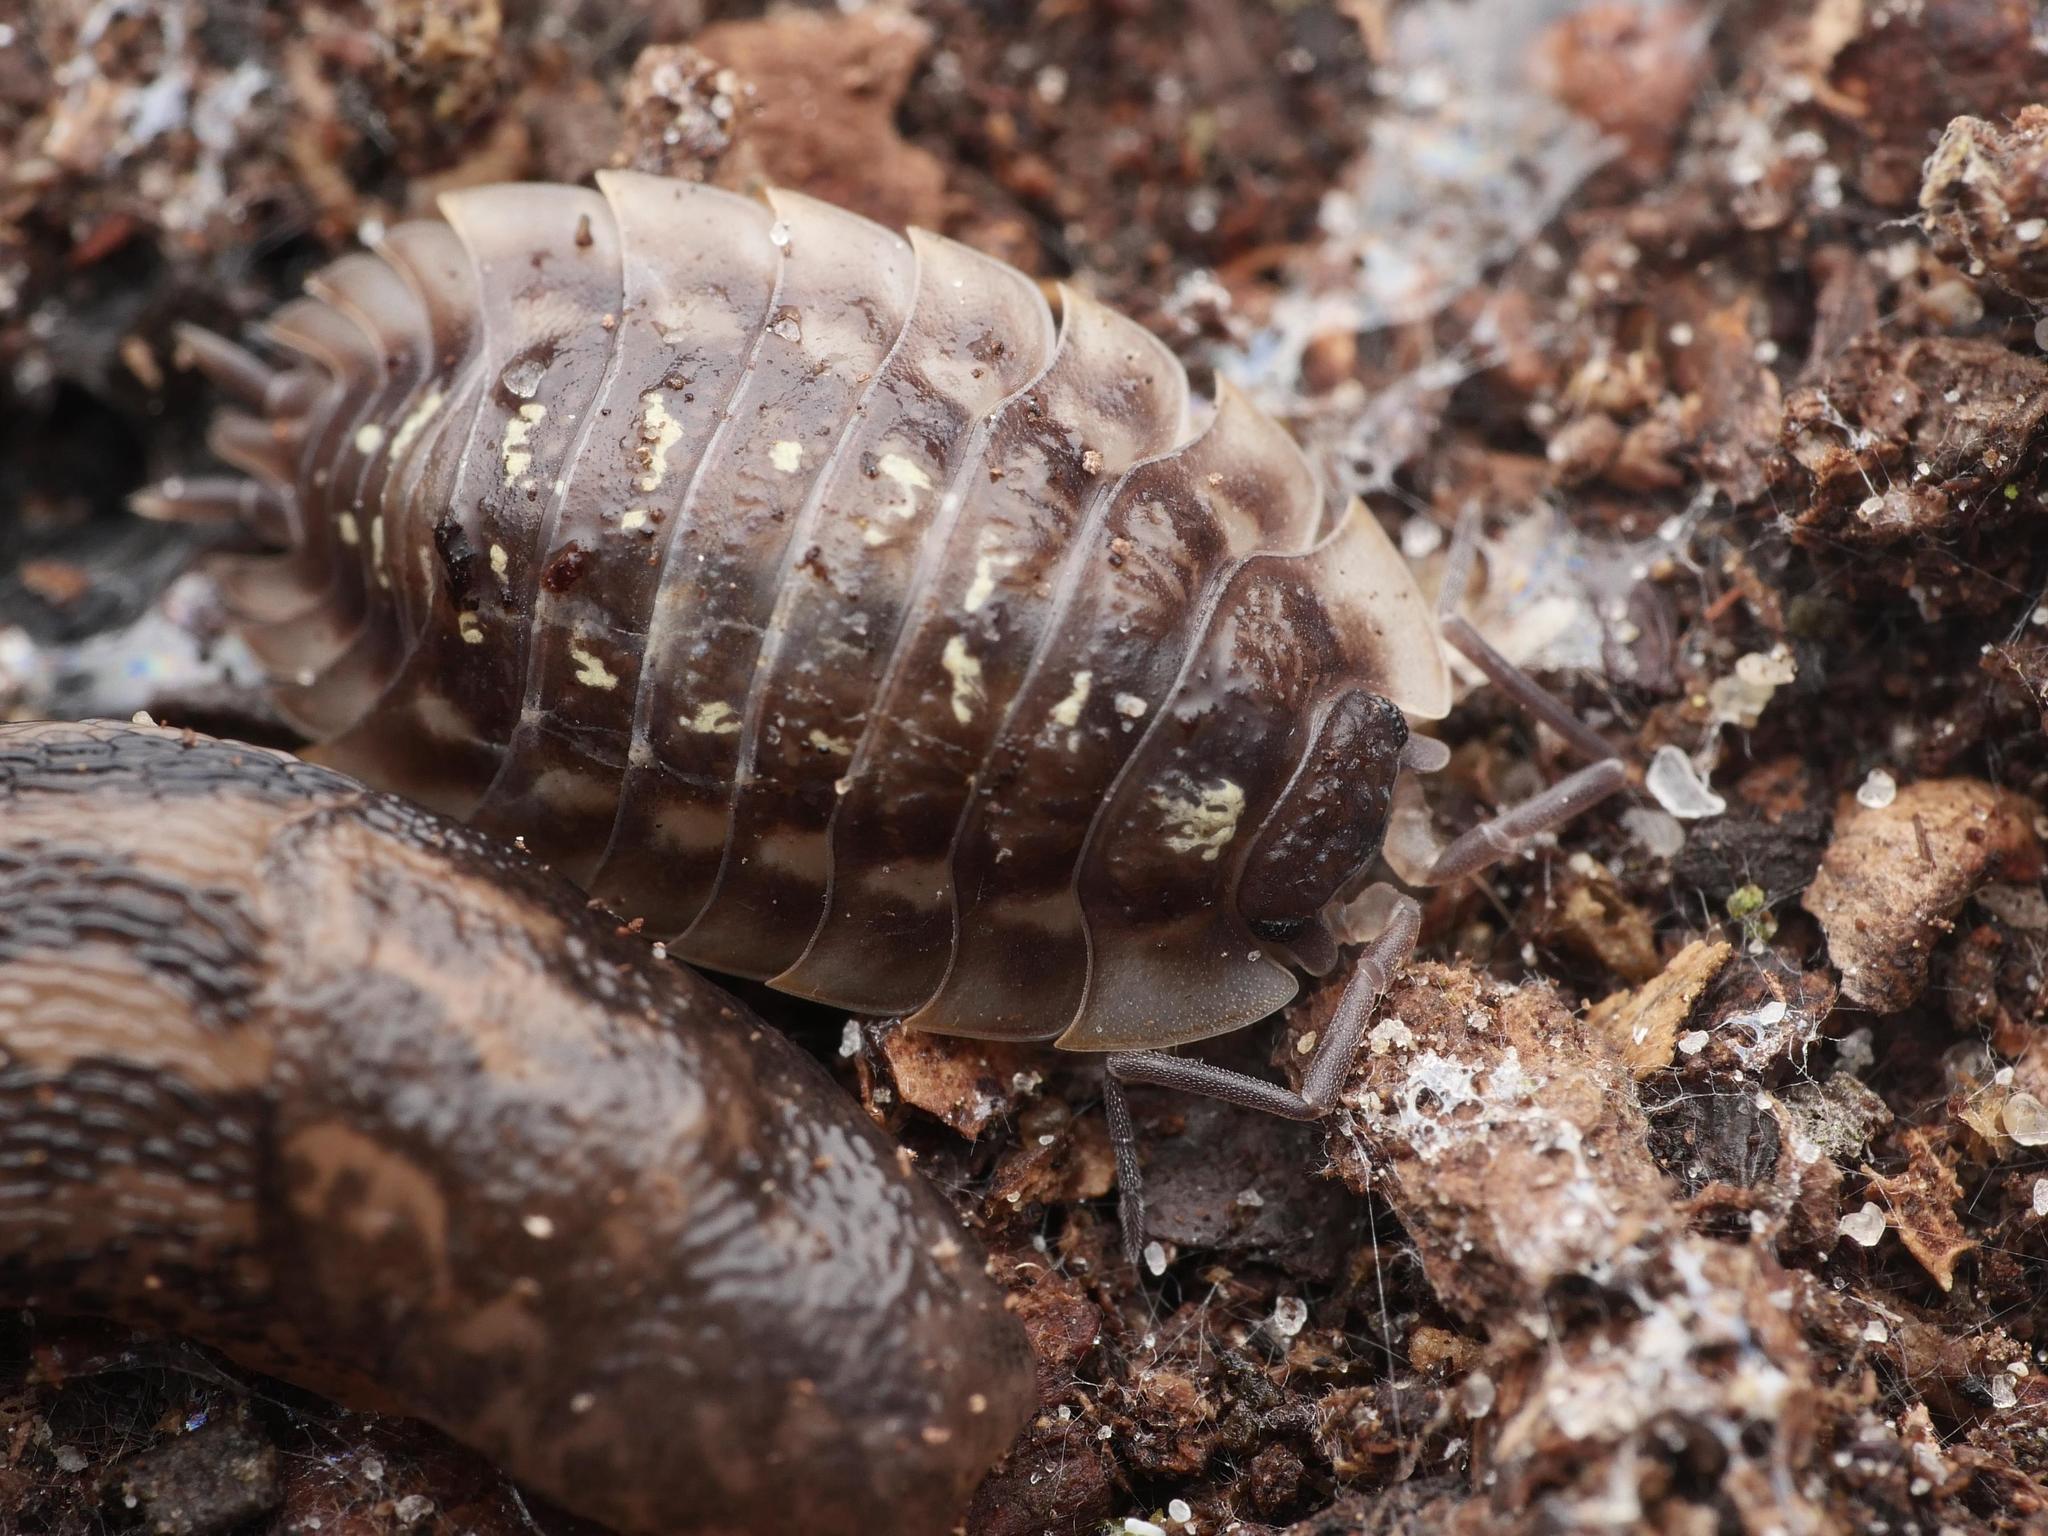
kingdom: Animalia
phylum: Arthropoda
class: Malacostraca
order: Isopoda
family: Oniscidae
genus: Oniscus
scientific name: Oniscus asellus
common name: Common shiny woodlouse
